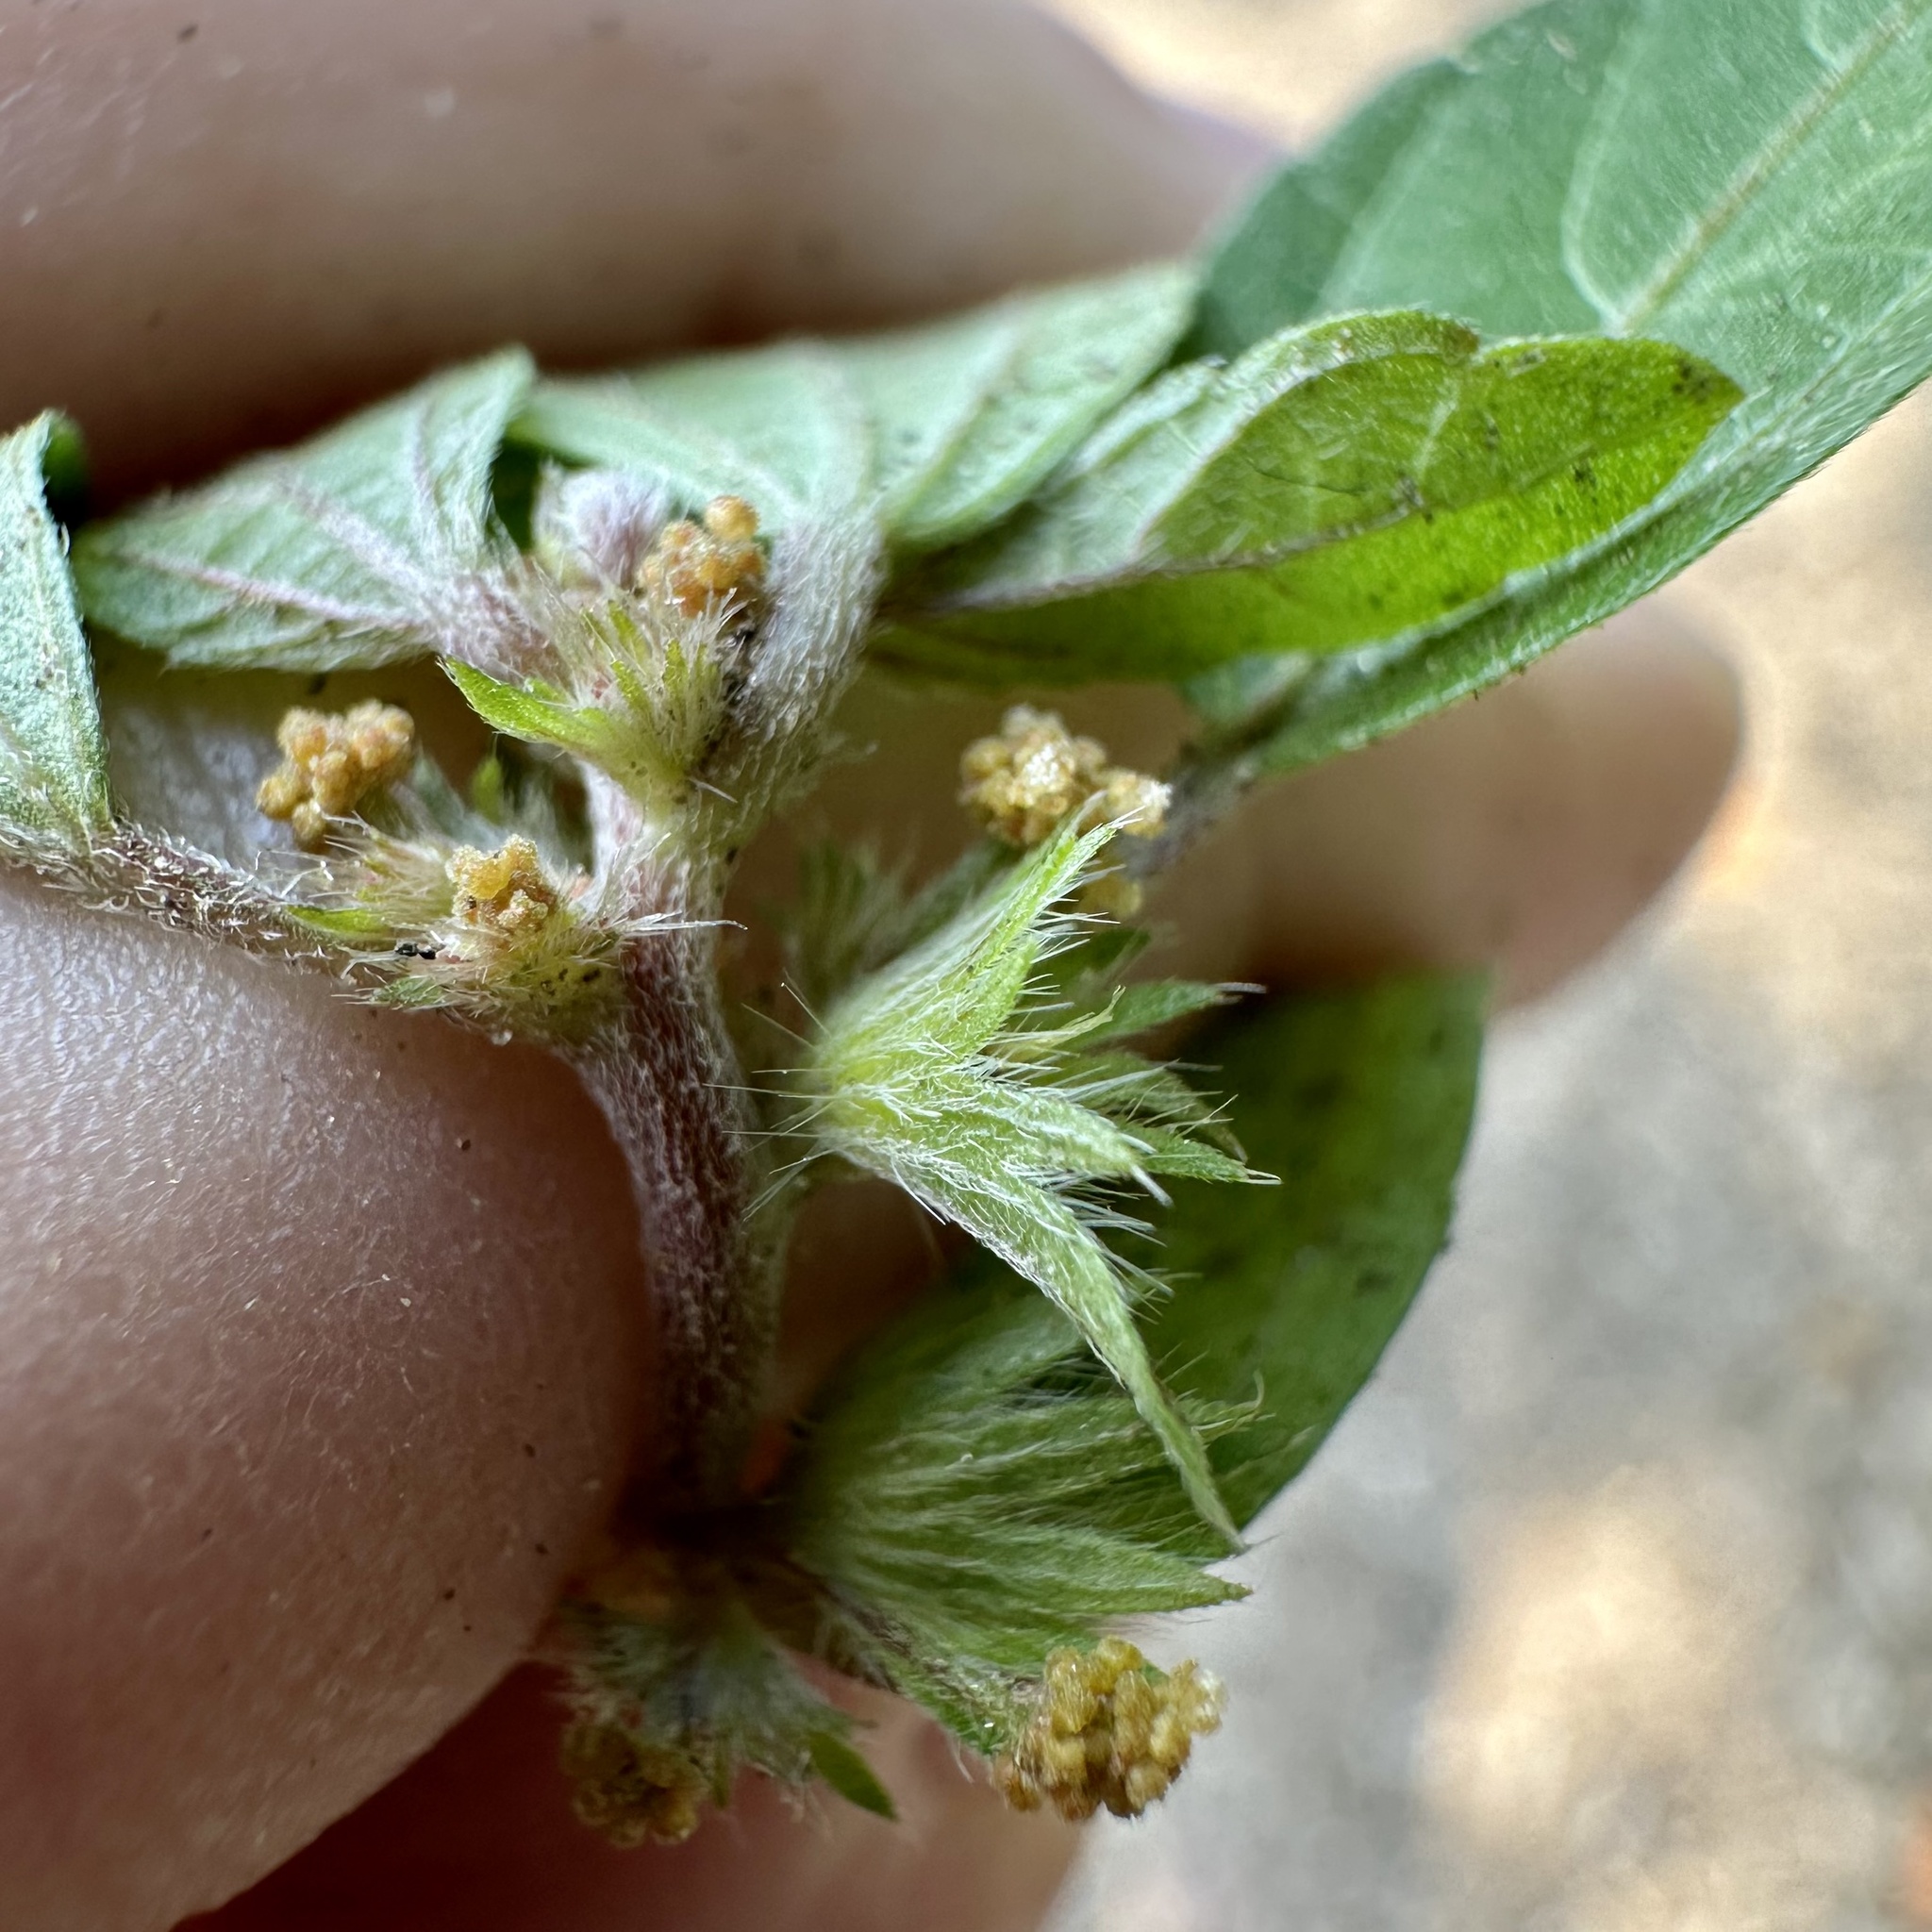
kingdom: Plantae
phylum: Tracheophyta
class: Magnoliopsida
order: Malpighiales
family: Euphorbiaceae
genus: Acalypha
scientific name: Acalypha virginica
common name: Virginia copperleaf
